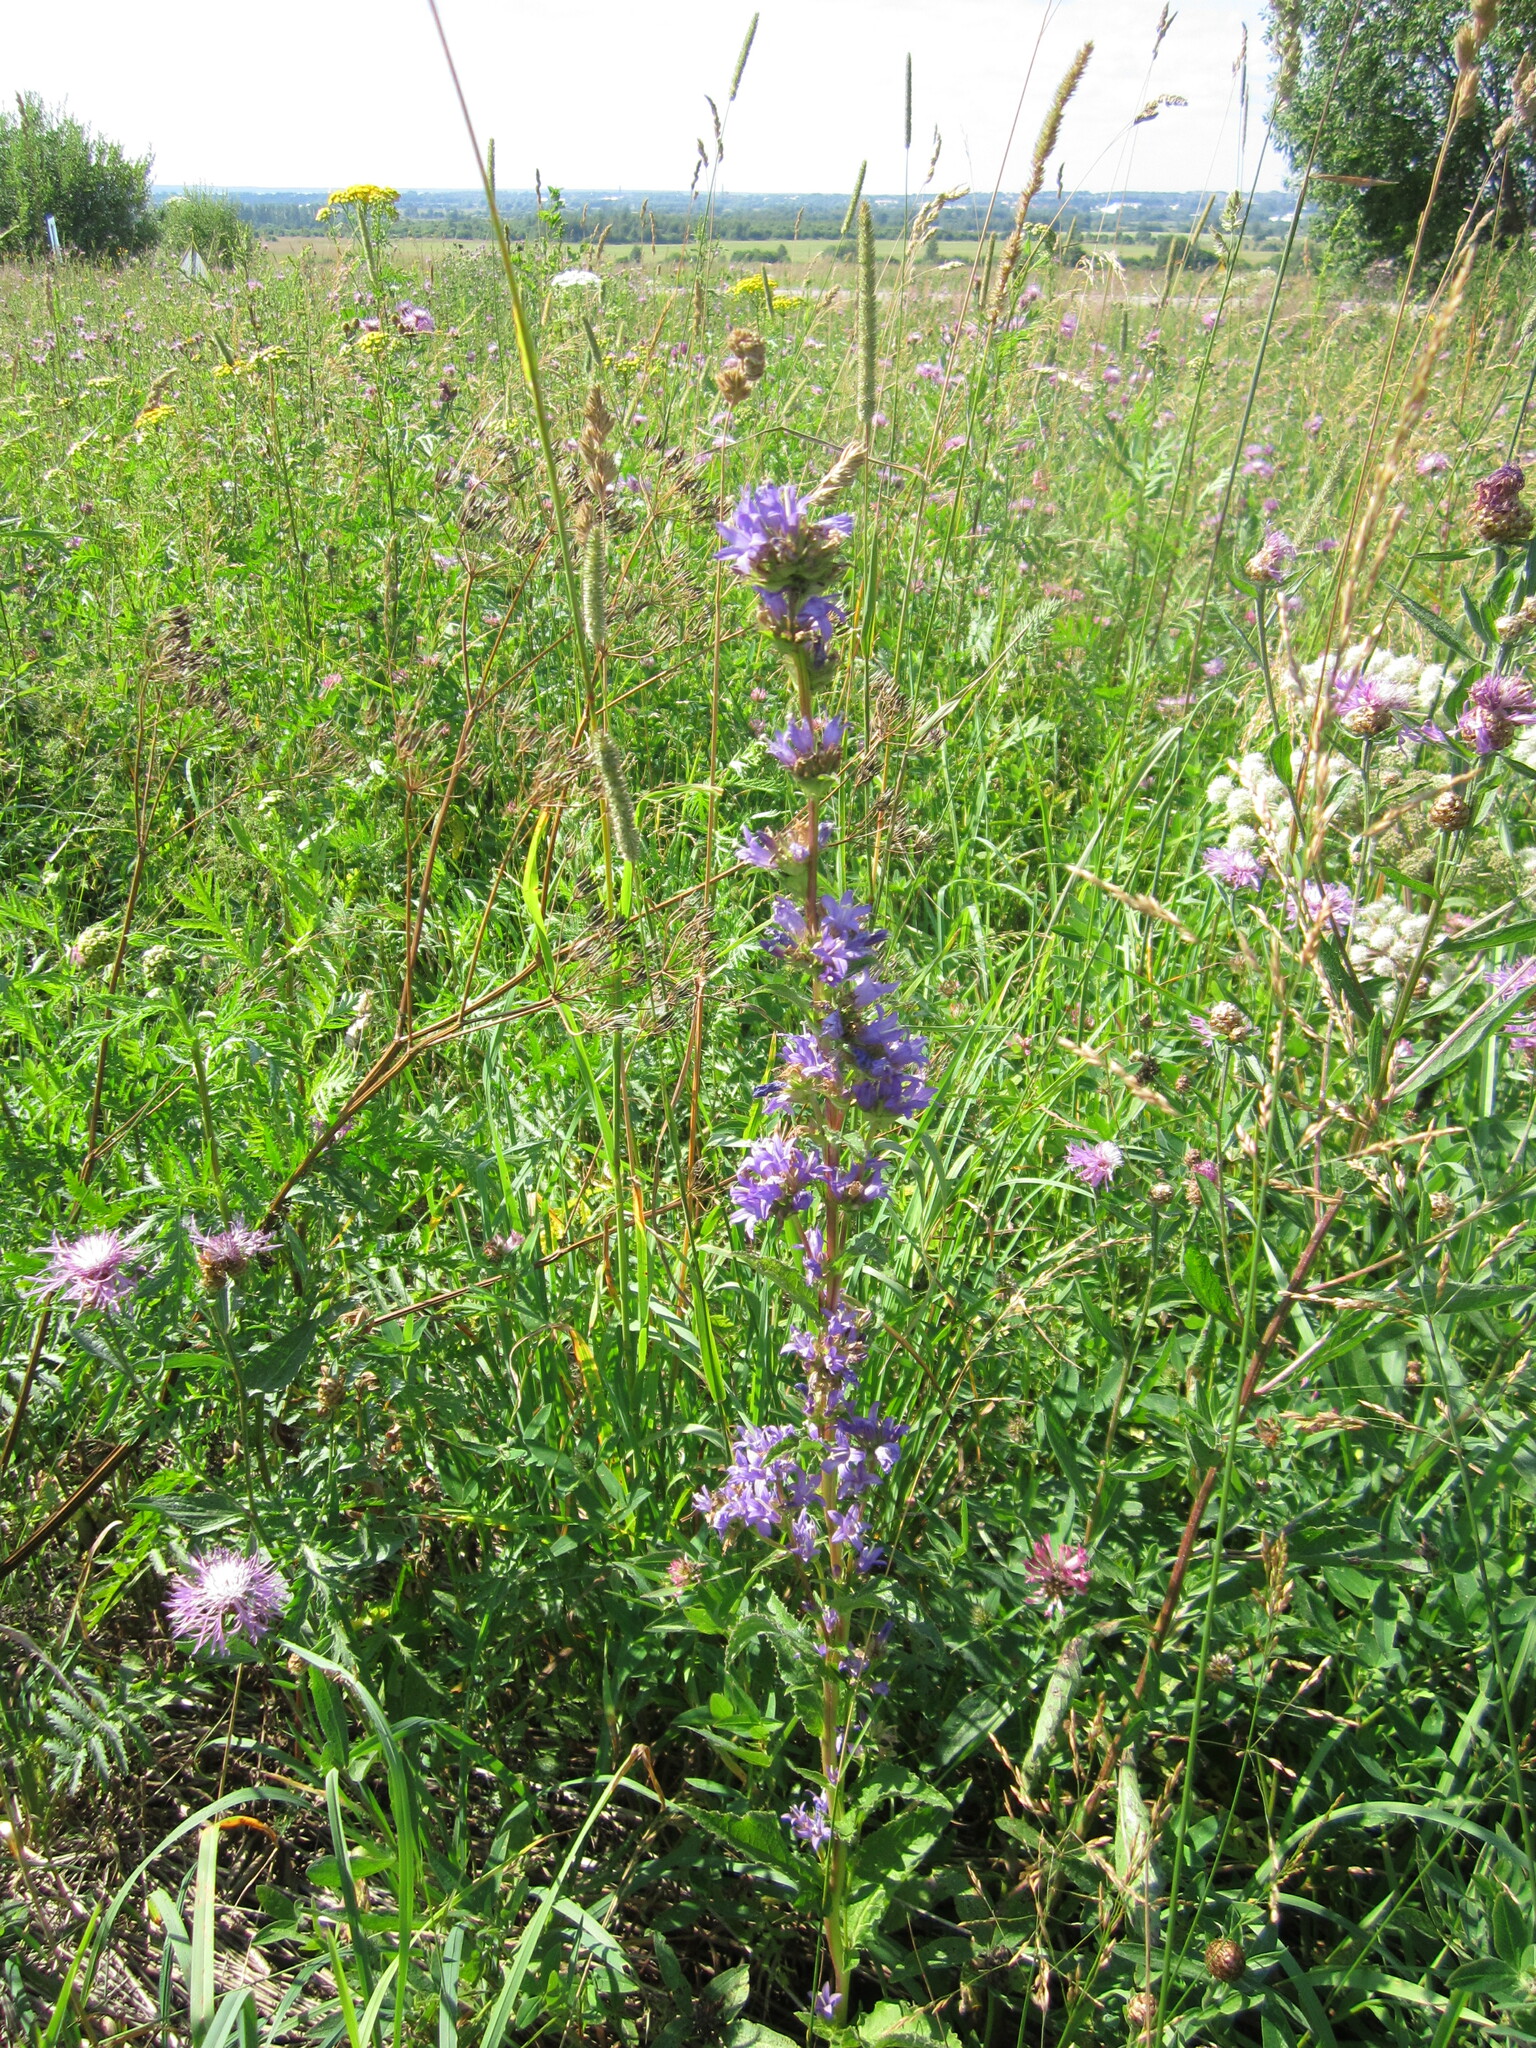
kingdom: Plantae
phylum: Tracheophyta
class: Magnoliopsida
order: Asterales
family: Campanulaceae
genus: Campanula
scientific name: Campanula glomerata
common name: Clustered bellflower
